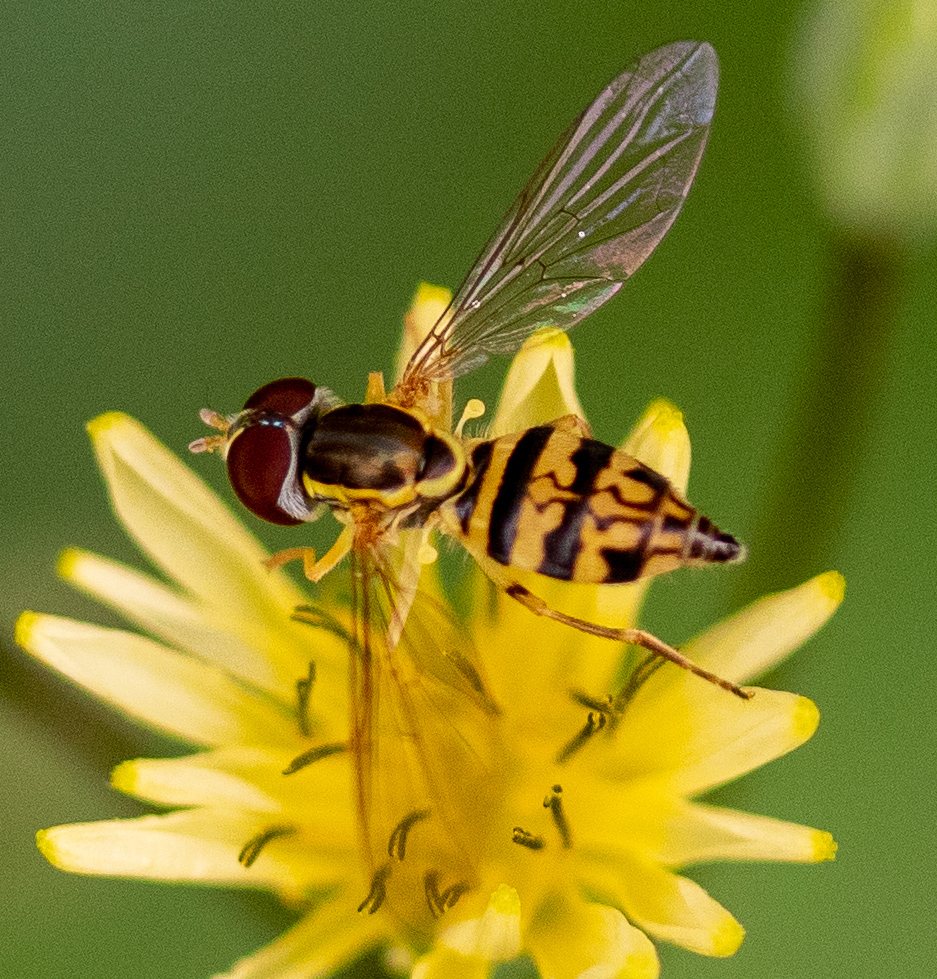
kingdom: Animalia
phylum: Arthropoda
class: Insecta
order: Diptera
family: Syrphidae
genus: Toxomerus
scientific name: Toxomerus geminatus
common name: Eastern calligrapher
